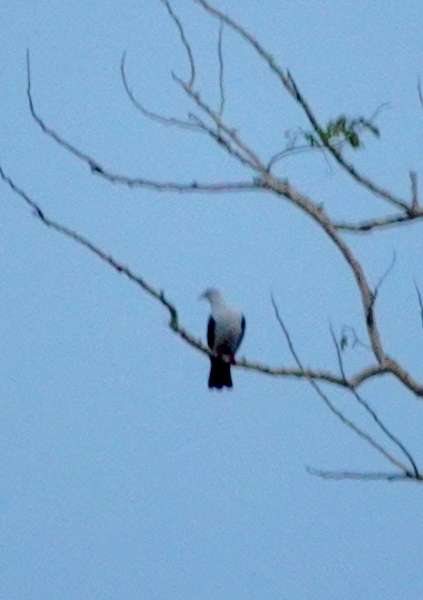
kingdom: Animalia
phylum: Chordata
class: Aves
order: Columbiformes
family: Columbidae
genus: Ducula
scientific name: Ducula concinna
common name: Elegant imperial pigeon
